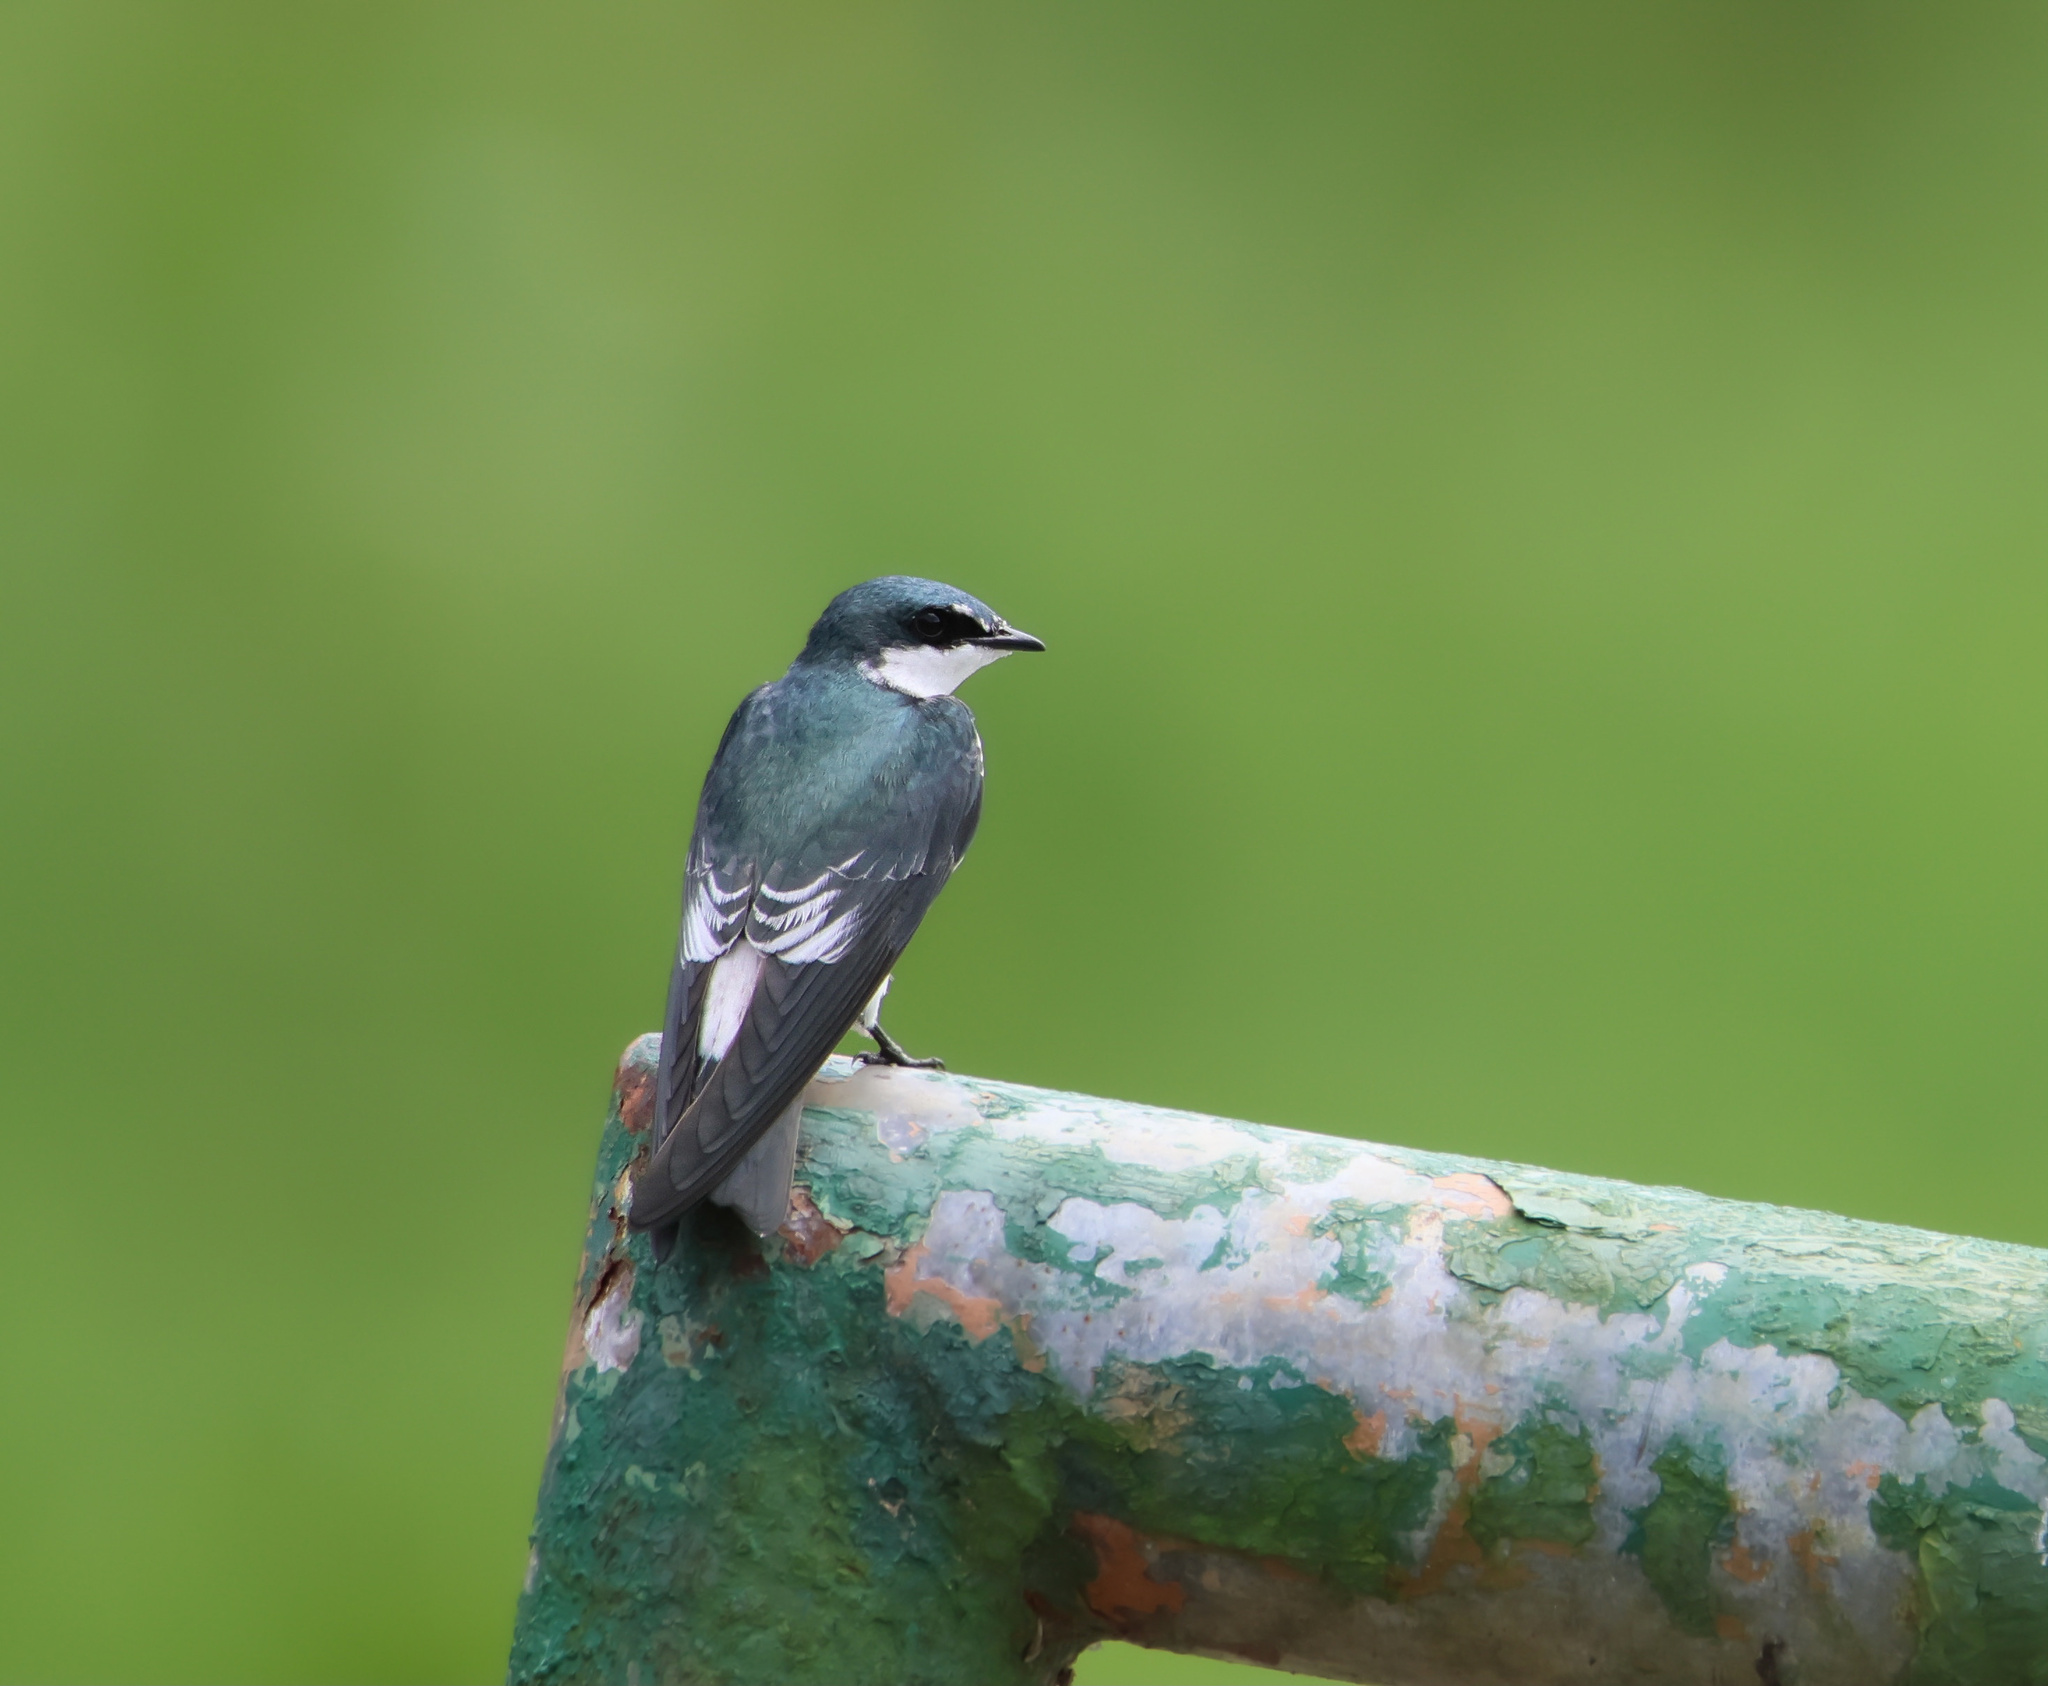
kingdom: Animalia
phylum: Chordata
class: Aves
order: Passeriformes
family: Hirundinidae
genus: Tachycineta
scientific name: Tachycineta albilinea
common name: Mangrove swallow
